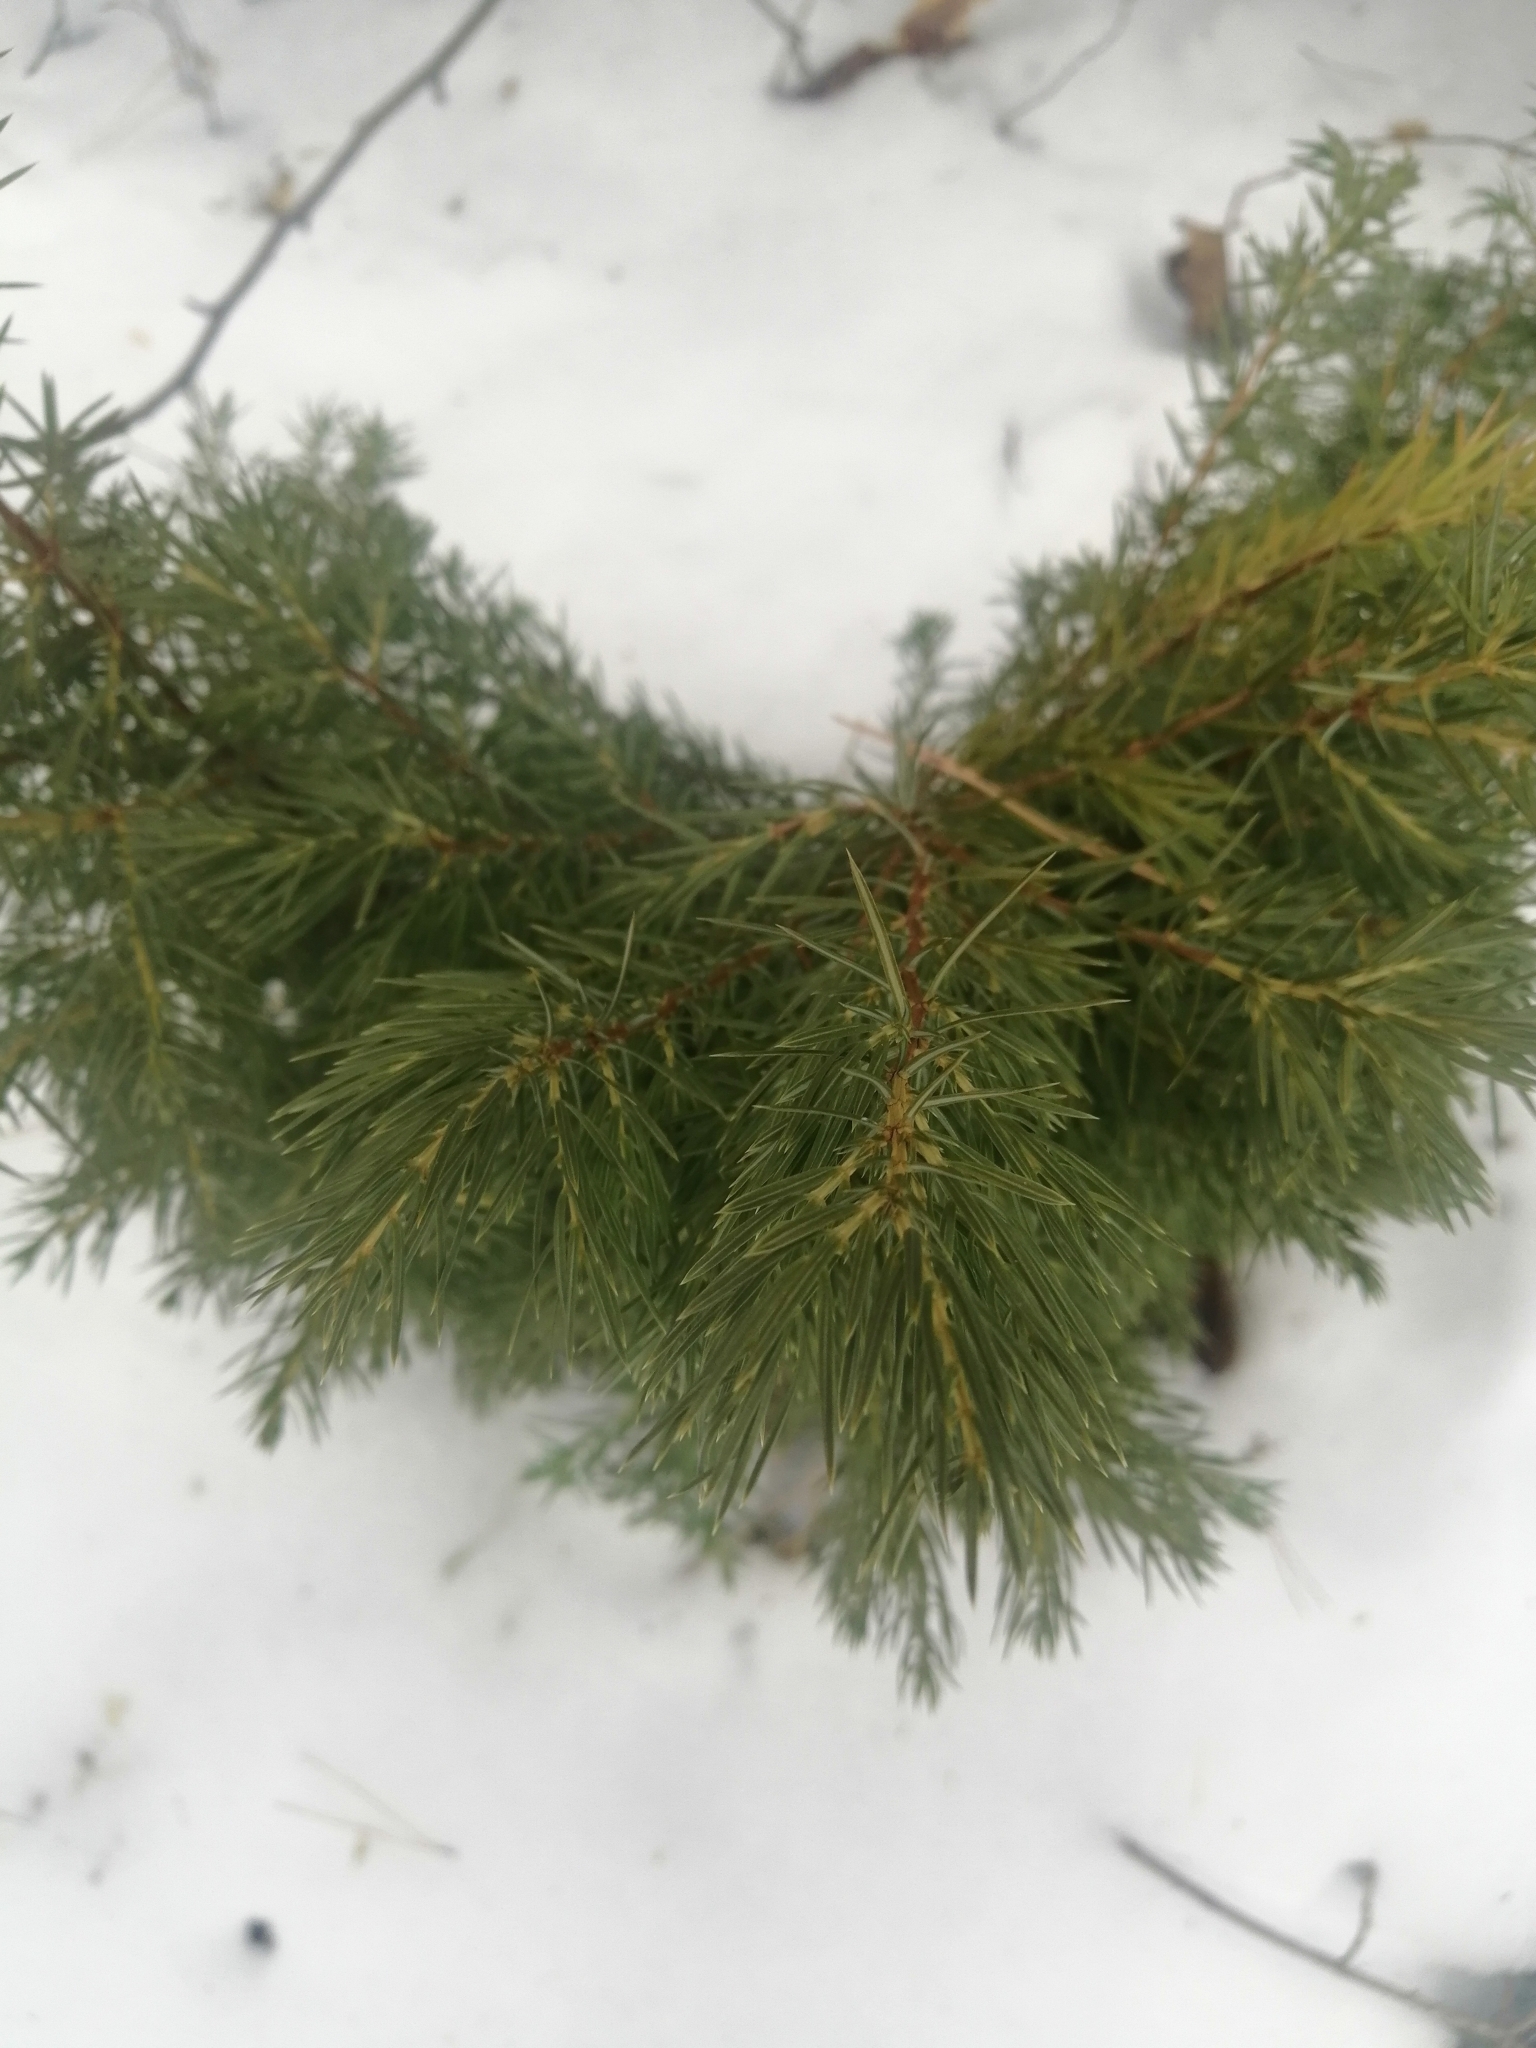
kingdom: Plantae
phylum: Tracheophyta
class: Pinopsida
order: Pinales
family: Cupressaceae
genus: Juniperus
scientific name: Juniperus communis
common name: Common juniper
